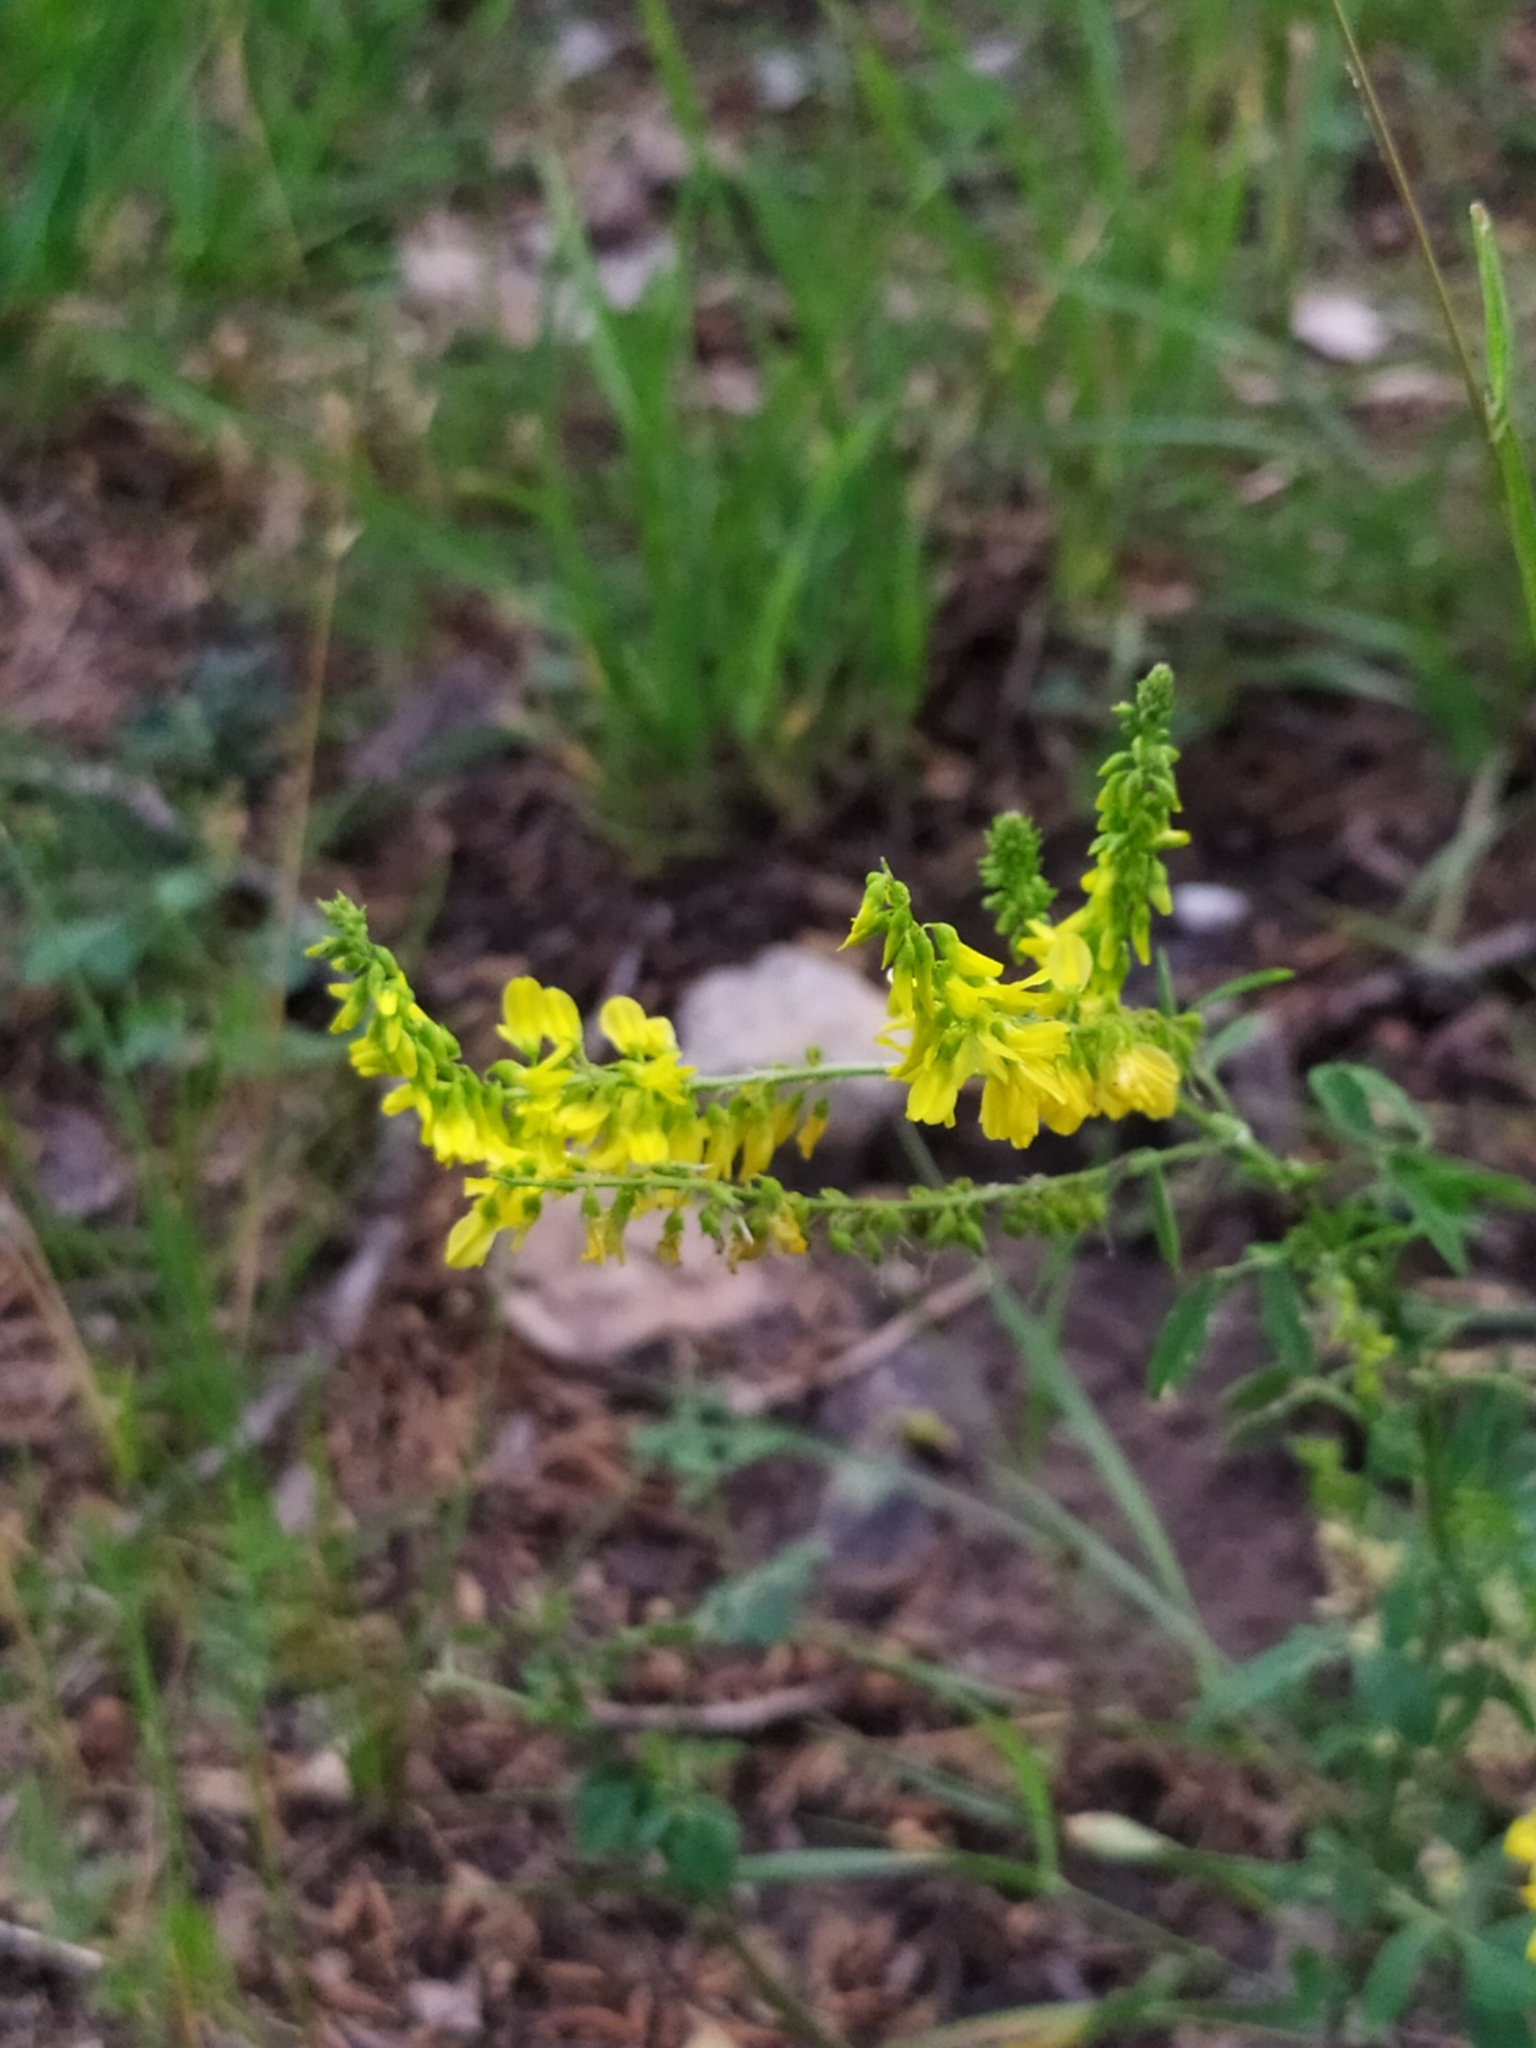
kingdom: Plantae
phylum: Tracheophyta
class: Magnoliopsida
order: Fabales
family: Fabaceae
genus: Melilotus
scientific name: Melilotus officinalis
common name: Sweetclover
